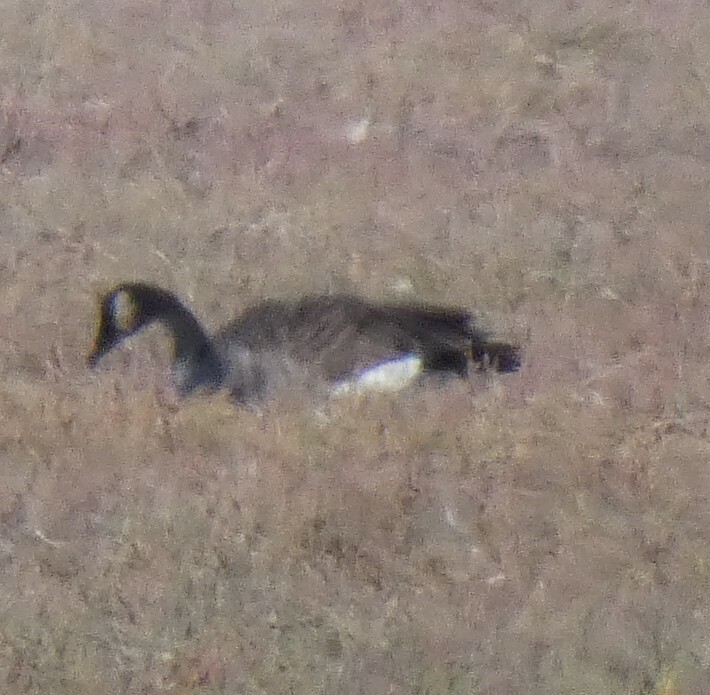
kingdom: Animalia
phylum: Chordata
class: Aves
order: Anseriformes
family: Anatidae
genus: Branta
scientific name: Branta canadensis
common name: Canada goose
